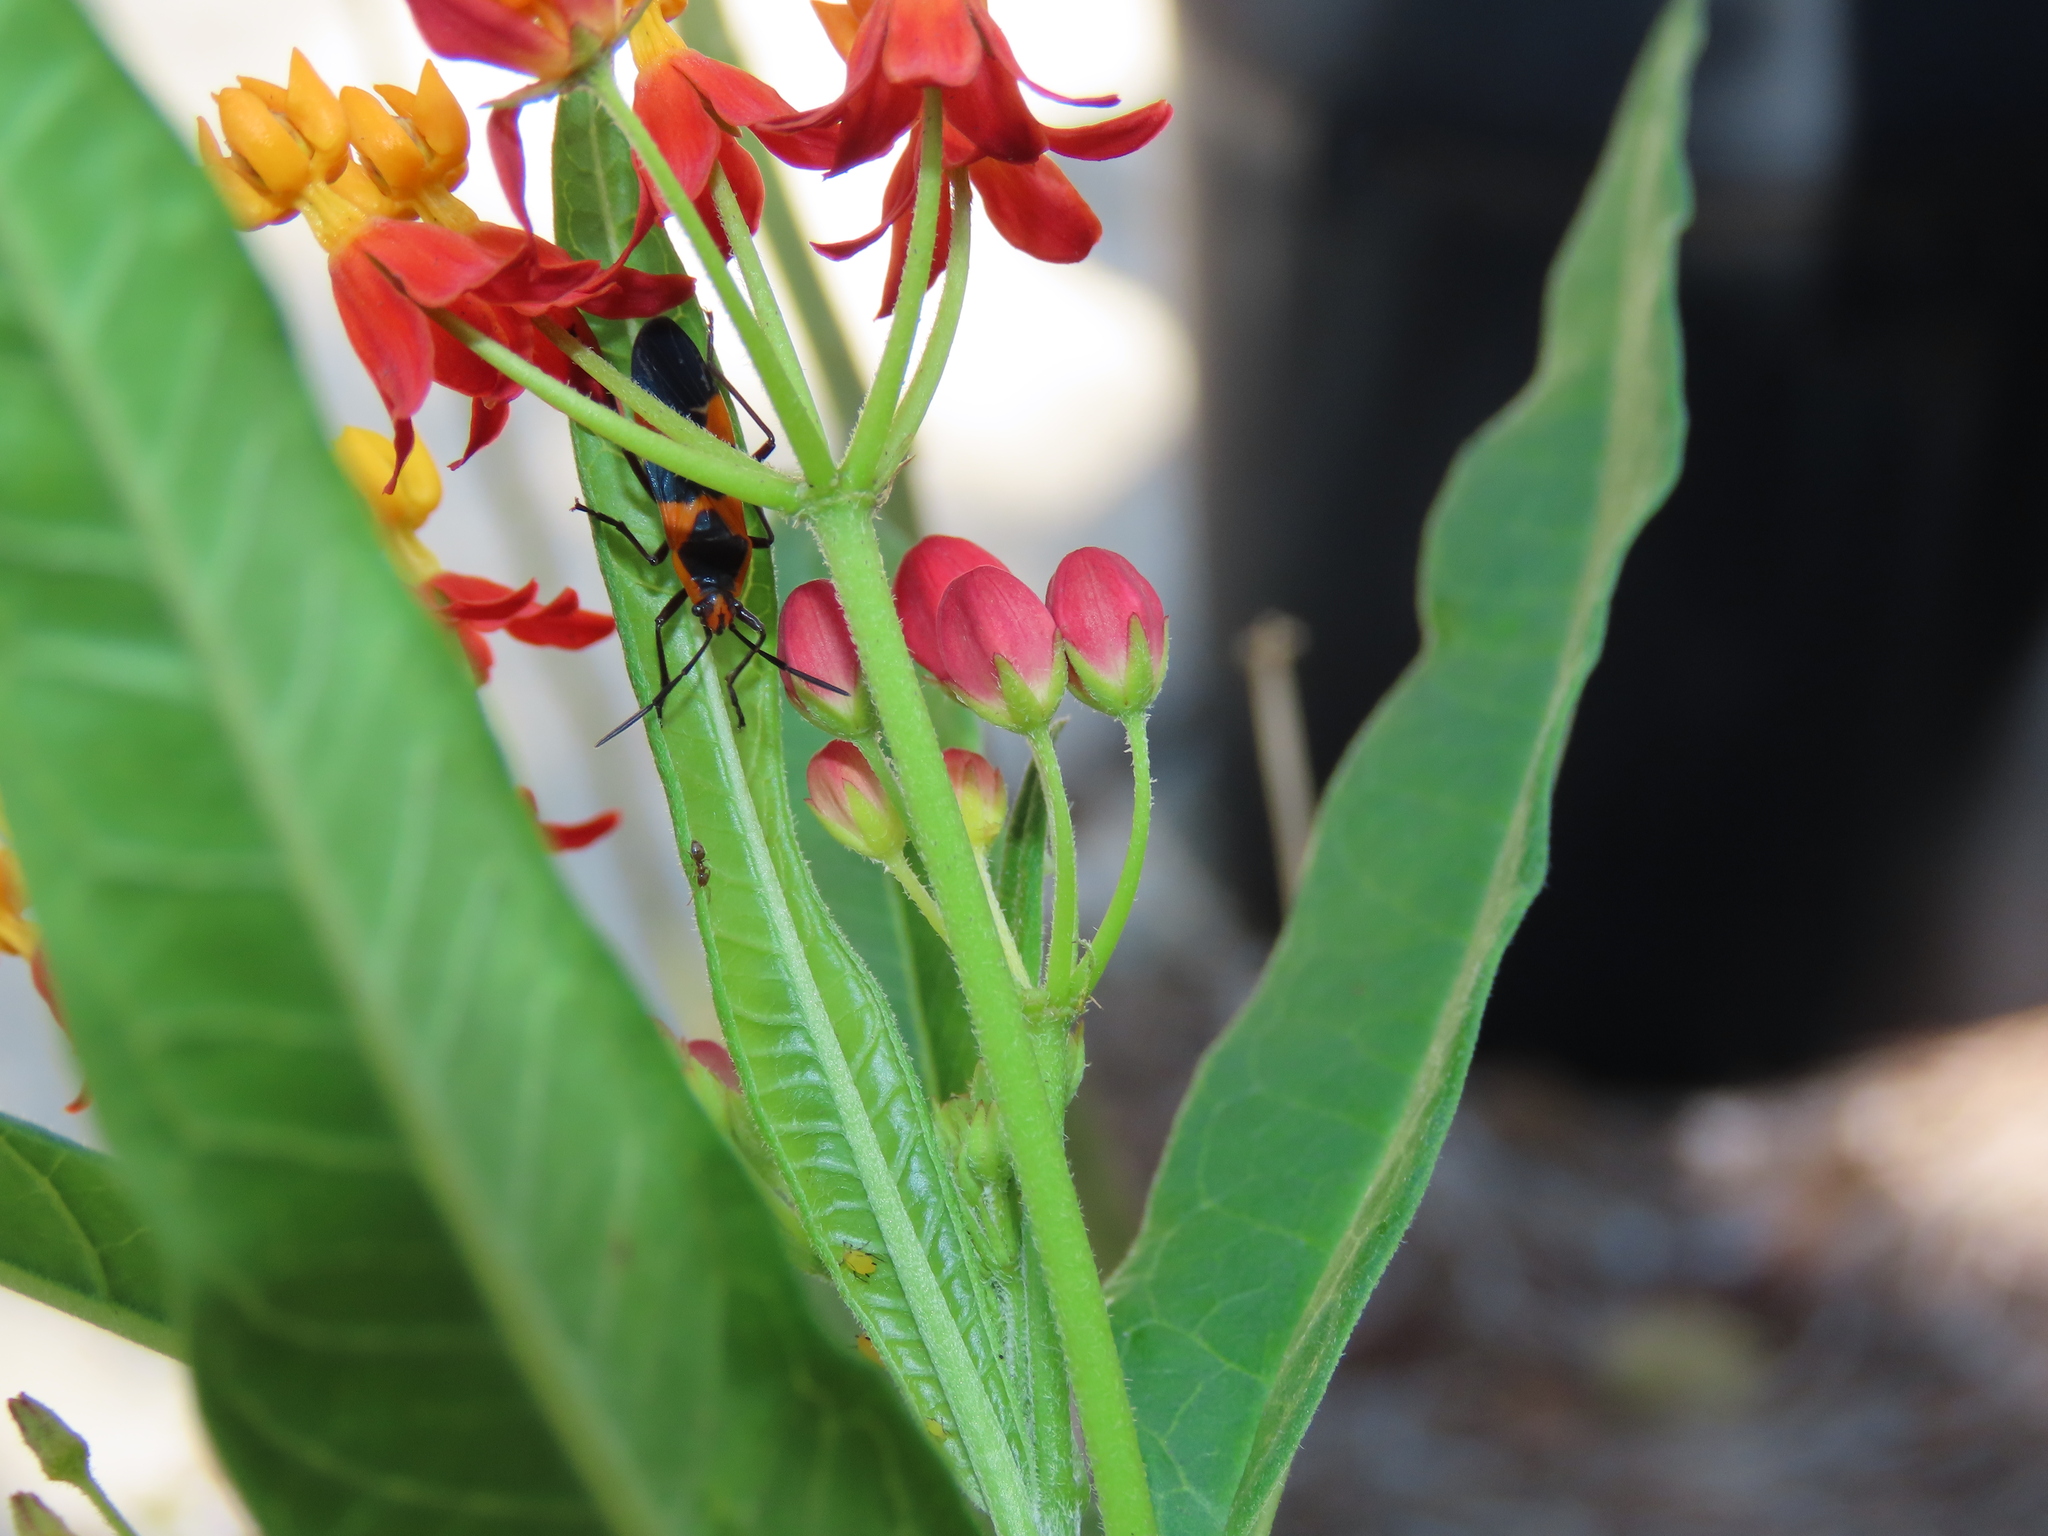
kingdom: Animalia
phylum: Arthropoda
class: Insecta
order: Hemiptera
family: Lygaeidae
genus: Oncopeltus
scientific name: Oncopeltus fasciatus
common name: Large milkweed bug
